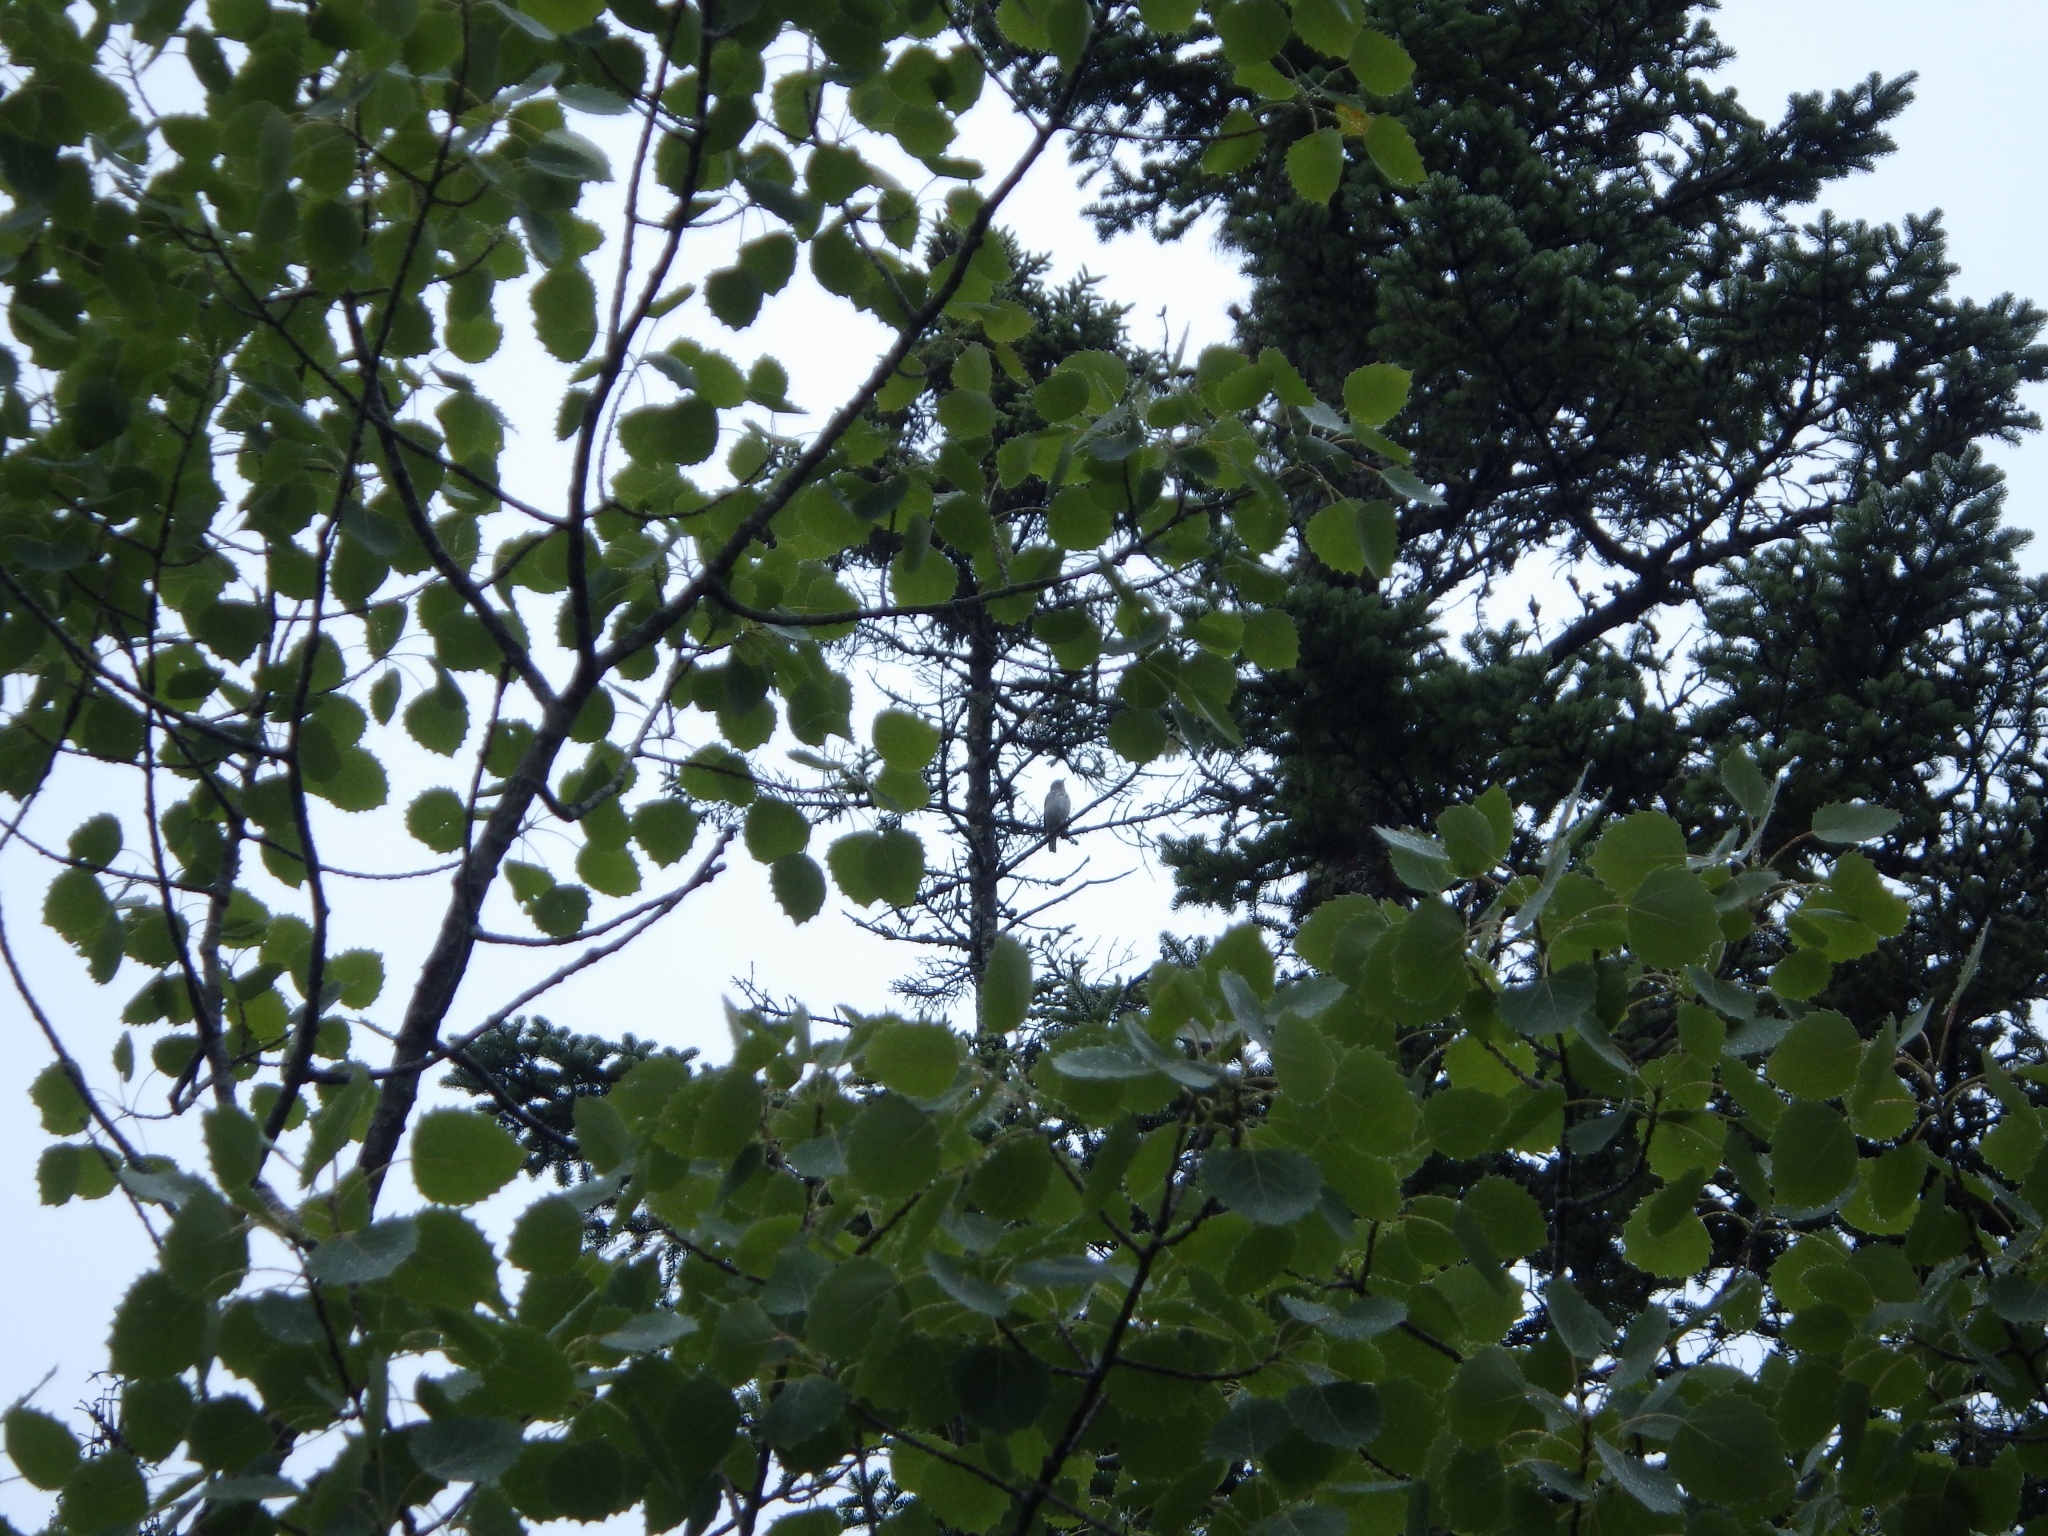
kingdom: Animalia
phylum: Chordata
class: Aves
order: Passeriformes
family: Turdidae
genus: Catharus
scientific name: Catharus guttatus
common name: Hermit thrush
